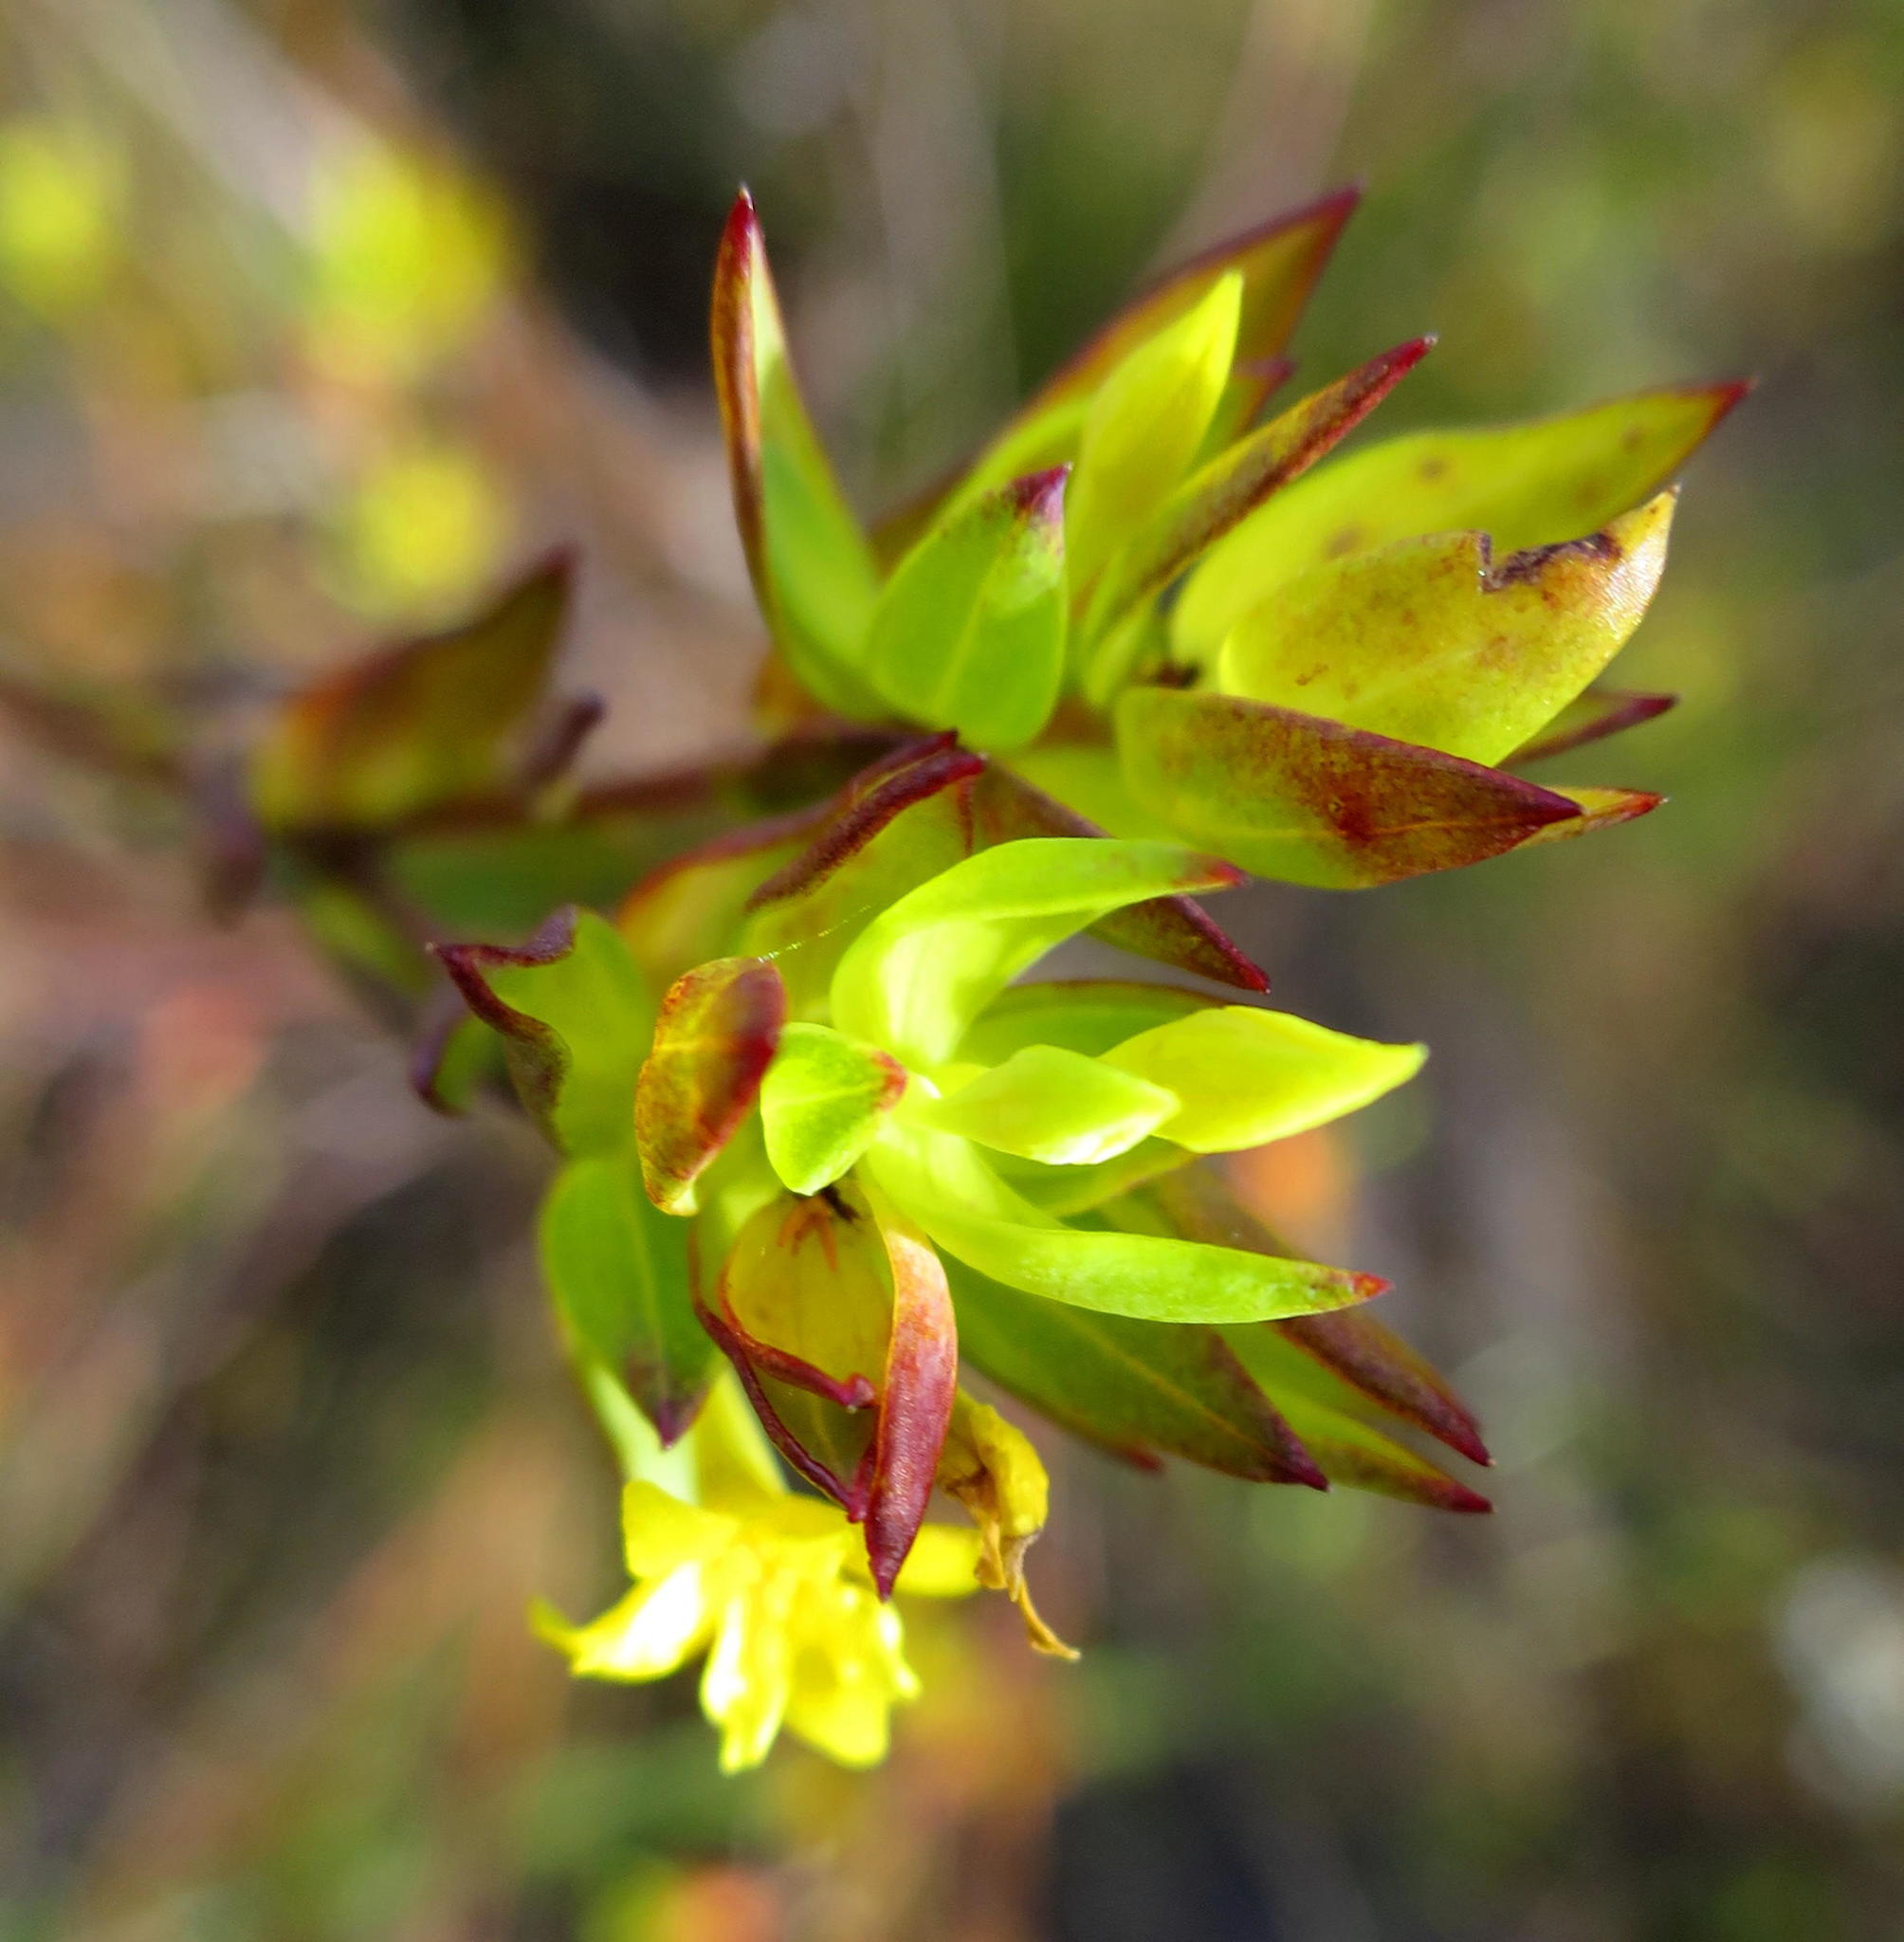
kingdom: Plantae
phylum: Tracheophyta
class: Magnoliopsida
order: Myrtales
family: Penaeaceae
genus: Penaea
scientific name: Penaea acutifolia
